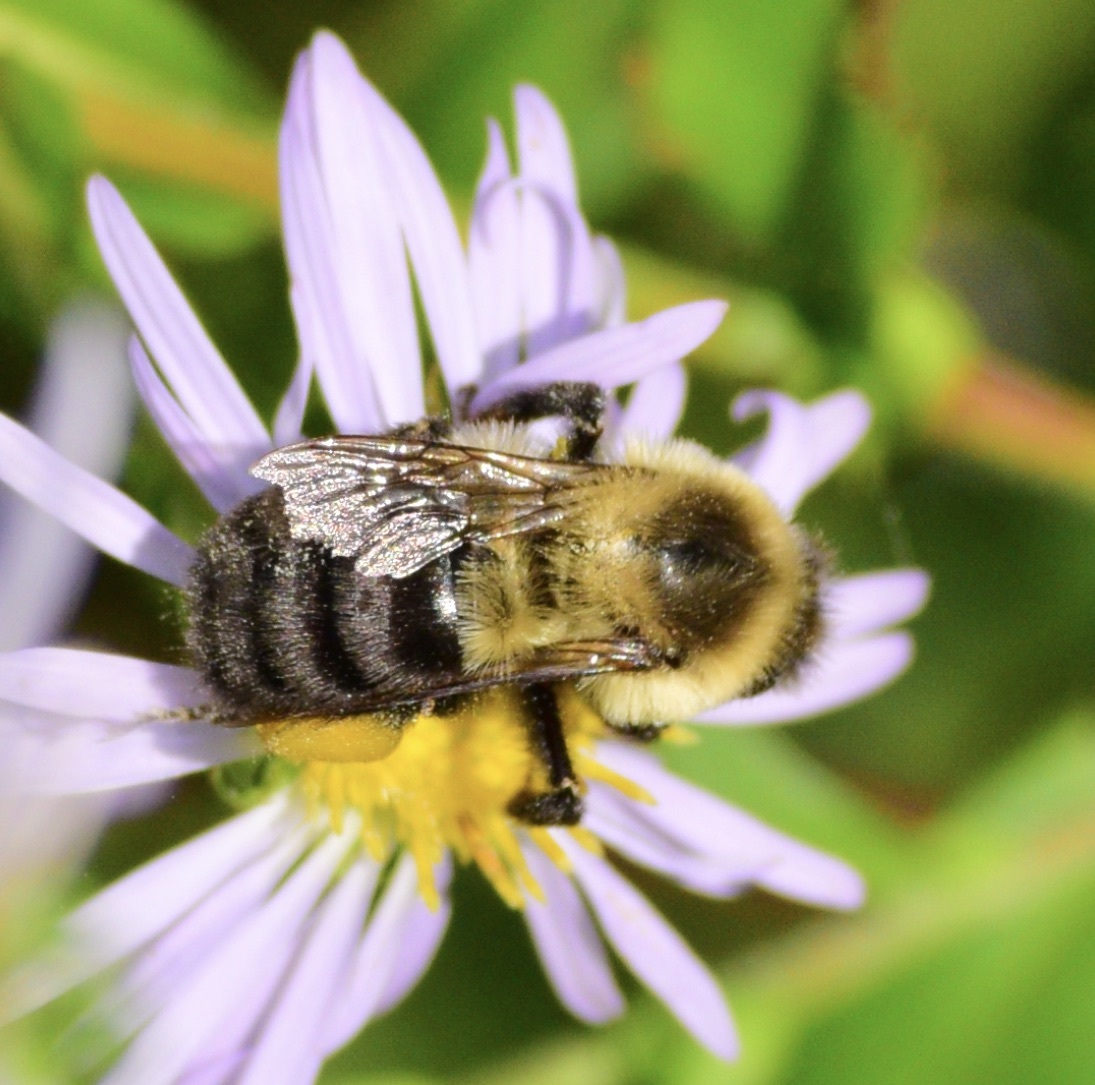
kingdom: Animalia
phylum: Arthropoda
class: Insecta
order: Hymenoptera
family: Apidae
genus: Bombus
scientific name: Bombus impatiens
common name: Common eastern bumble bee
